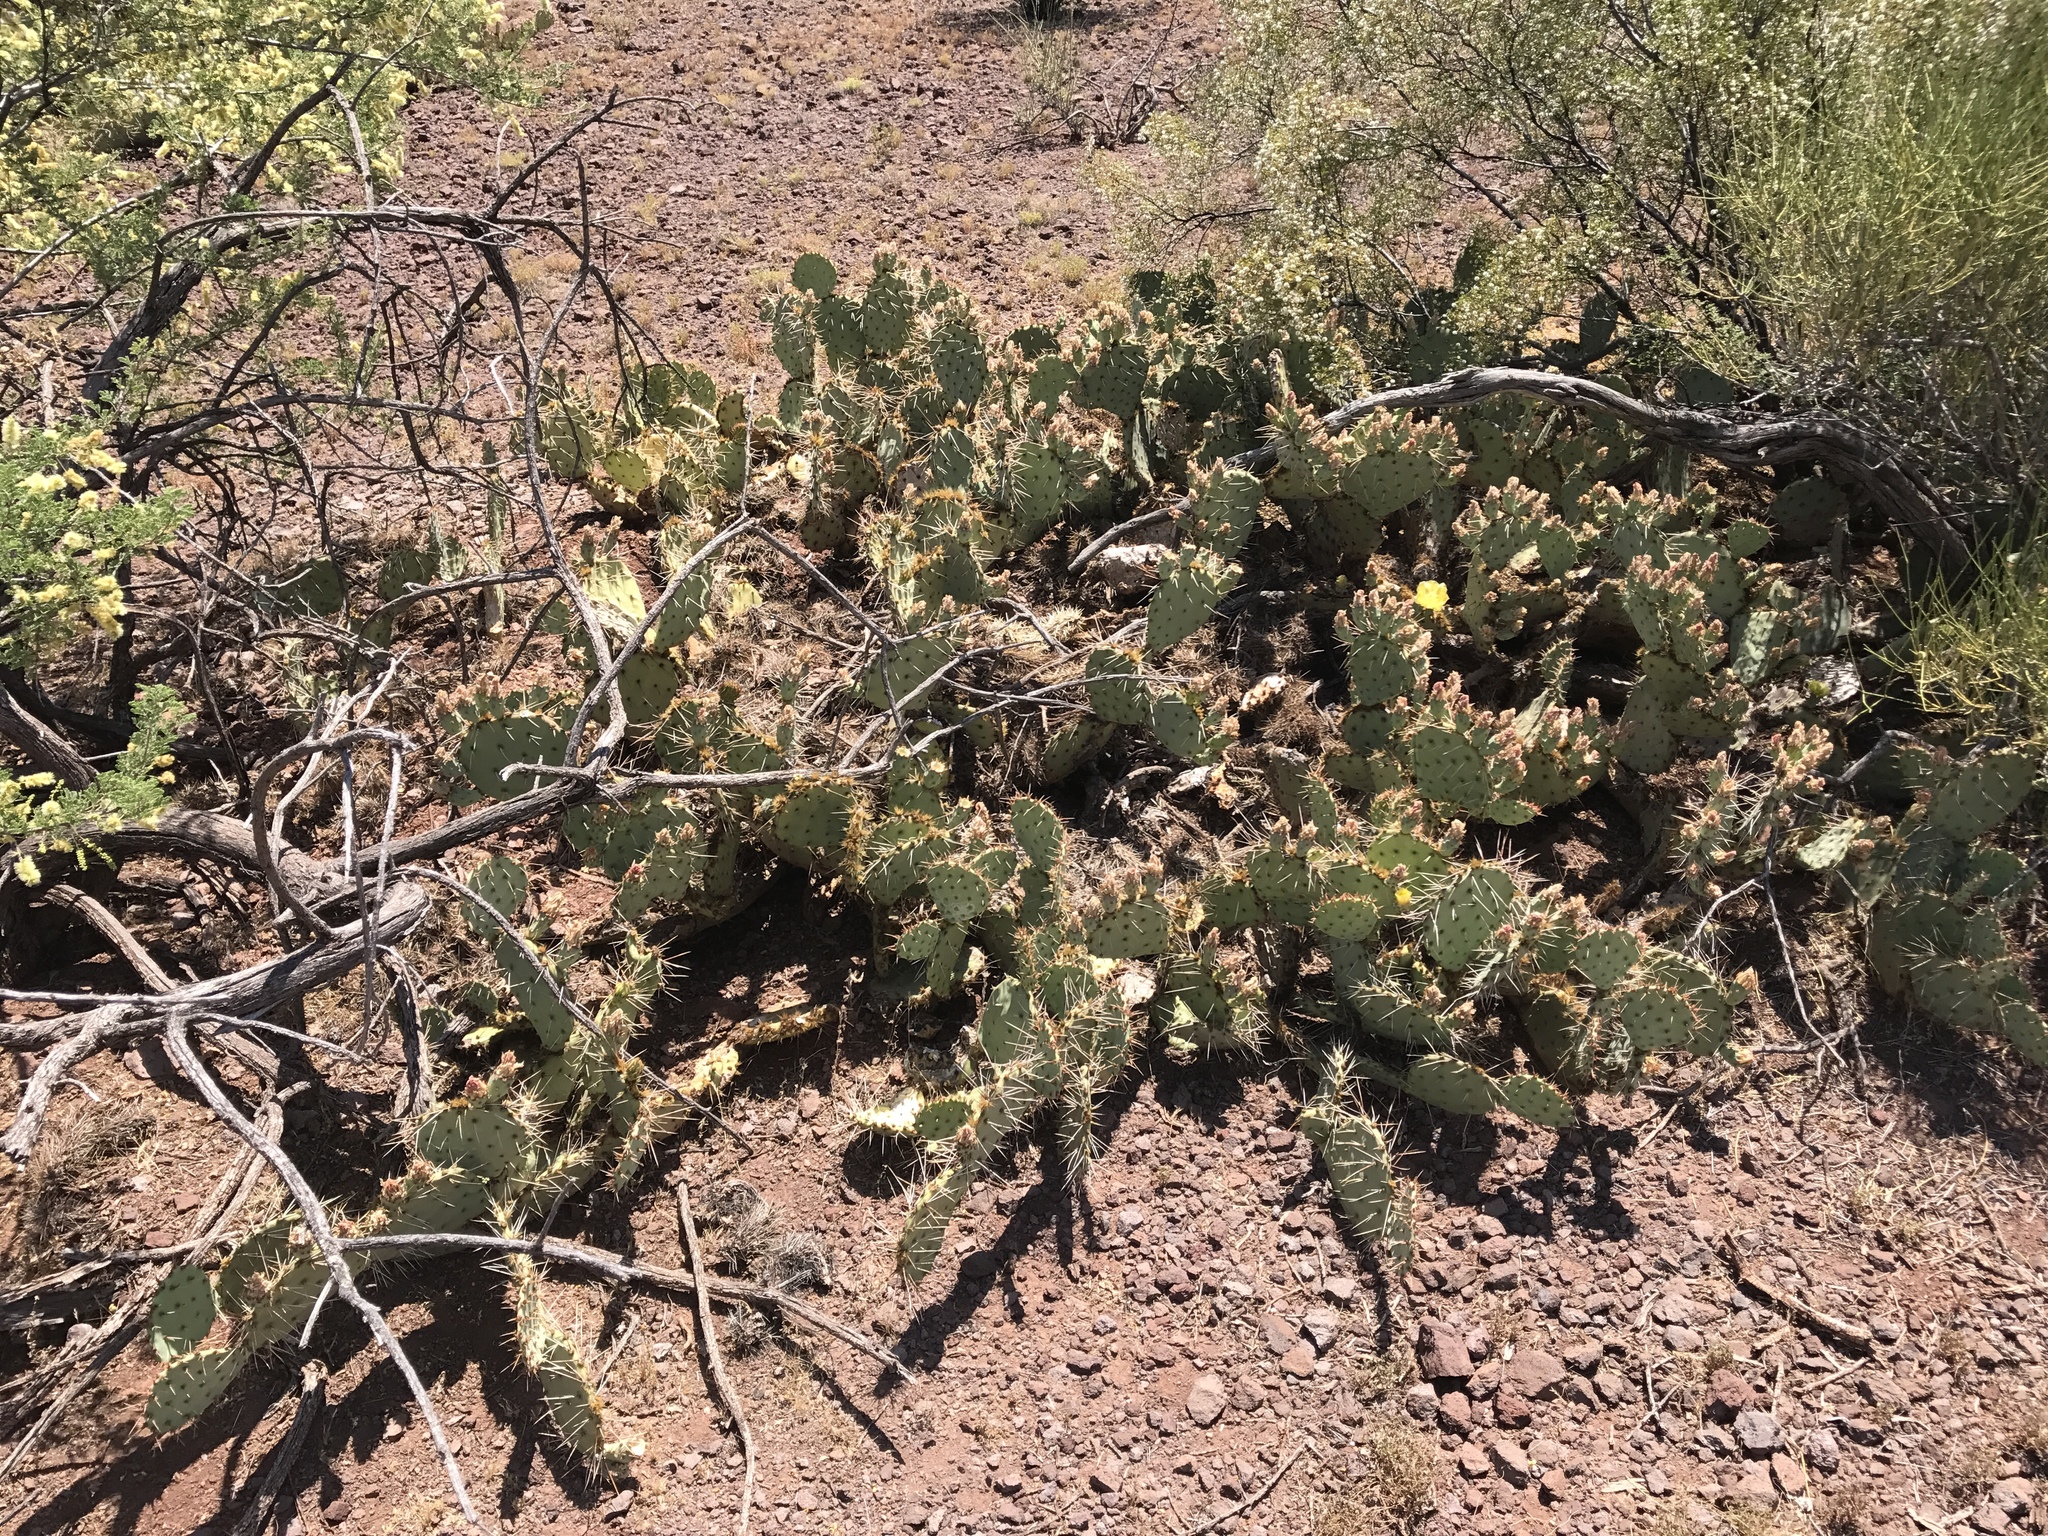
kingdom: Plantae
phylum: Tracheophyta
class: Magnoliopsida
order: Caryophyllales
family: Cactaceae
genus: Opuntia
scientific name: Opuntia phaeacantha
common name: New mexico prickly-pear
